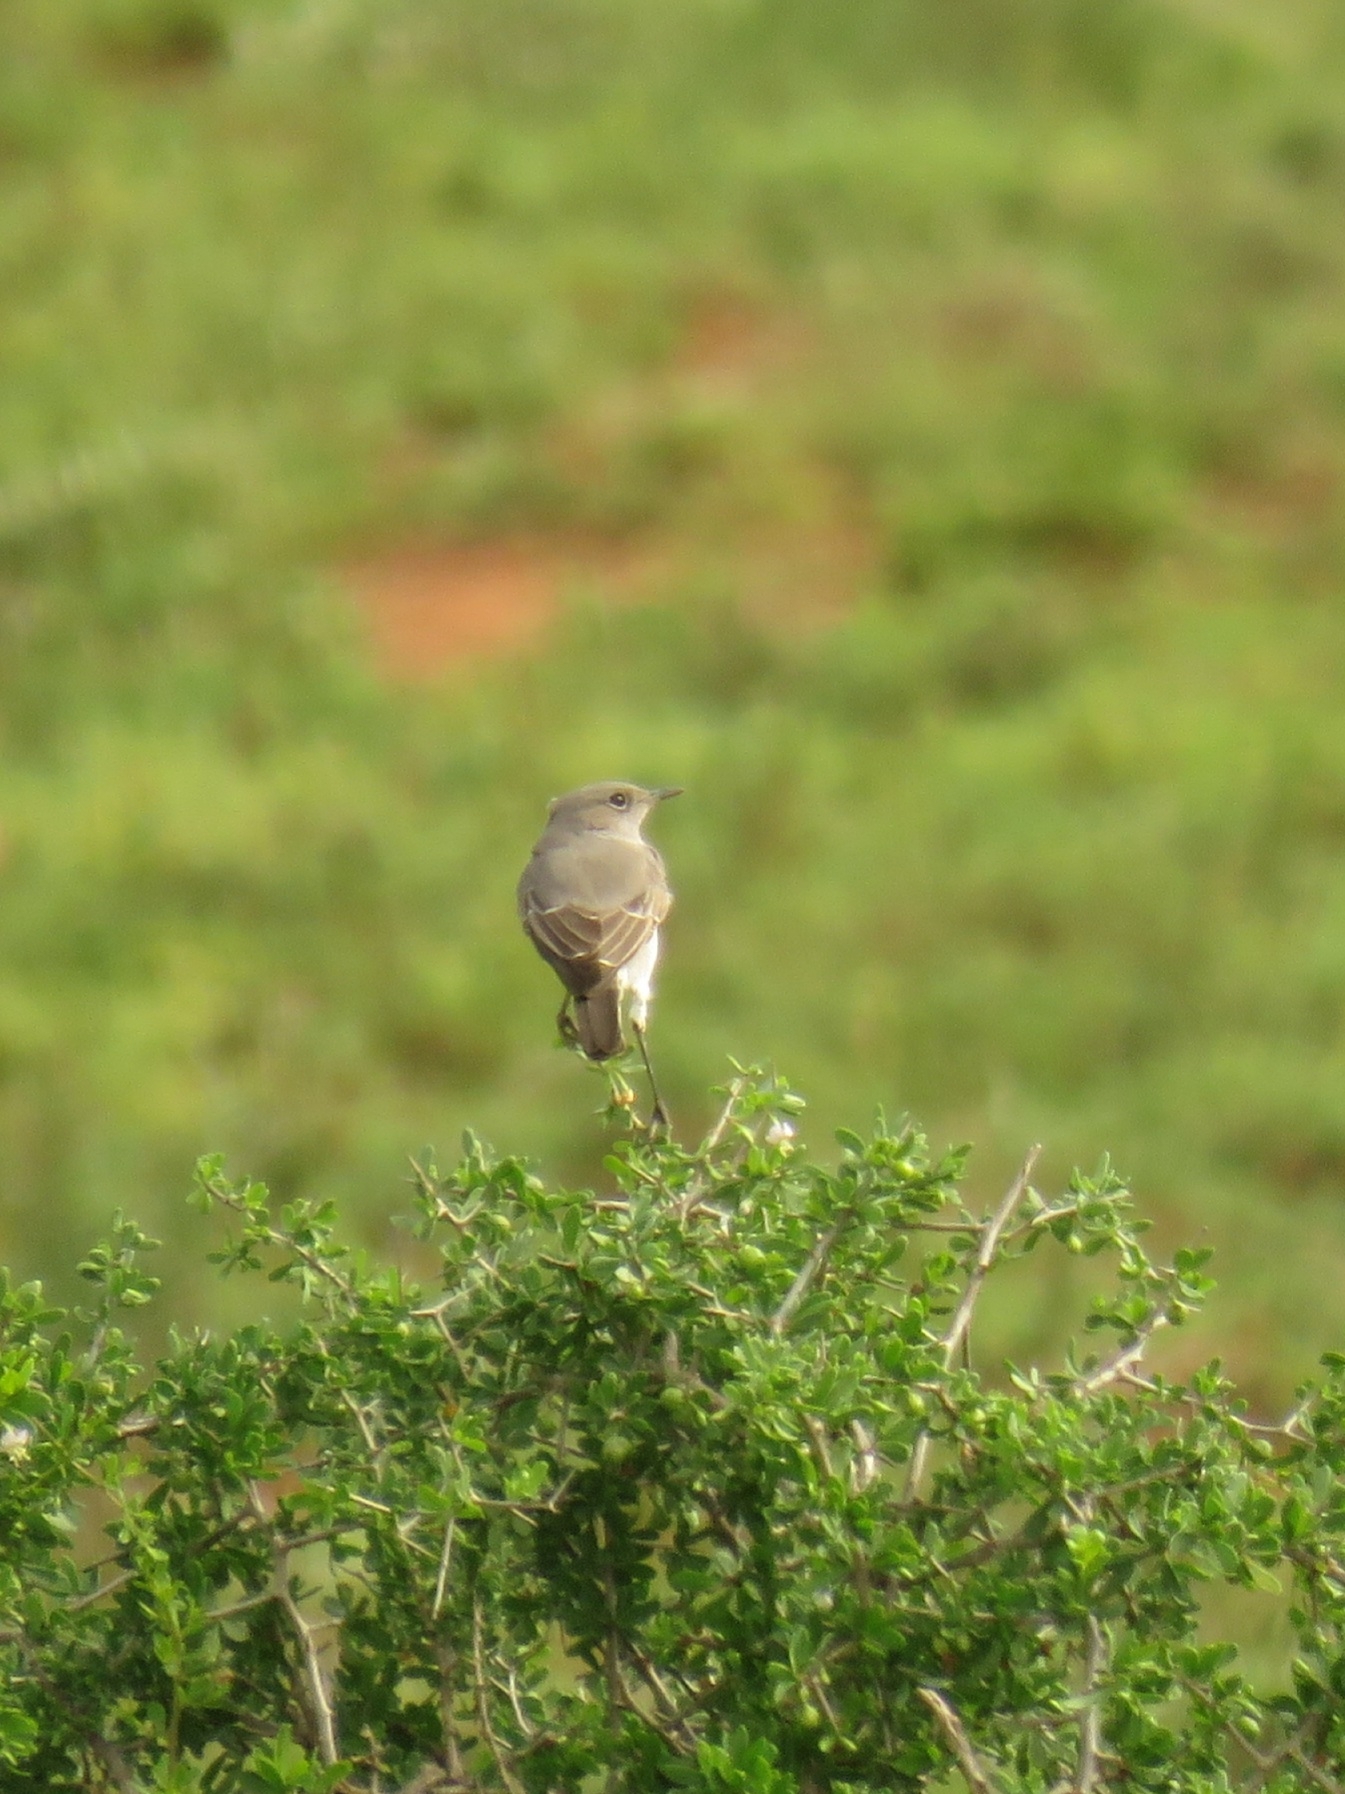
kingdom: Animalia
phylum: Chordata
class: Aves
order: Passeriformes
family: Muscicapidae
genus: Emarginata
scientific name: Emarginata schlegelii
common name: Karoo chat
